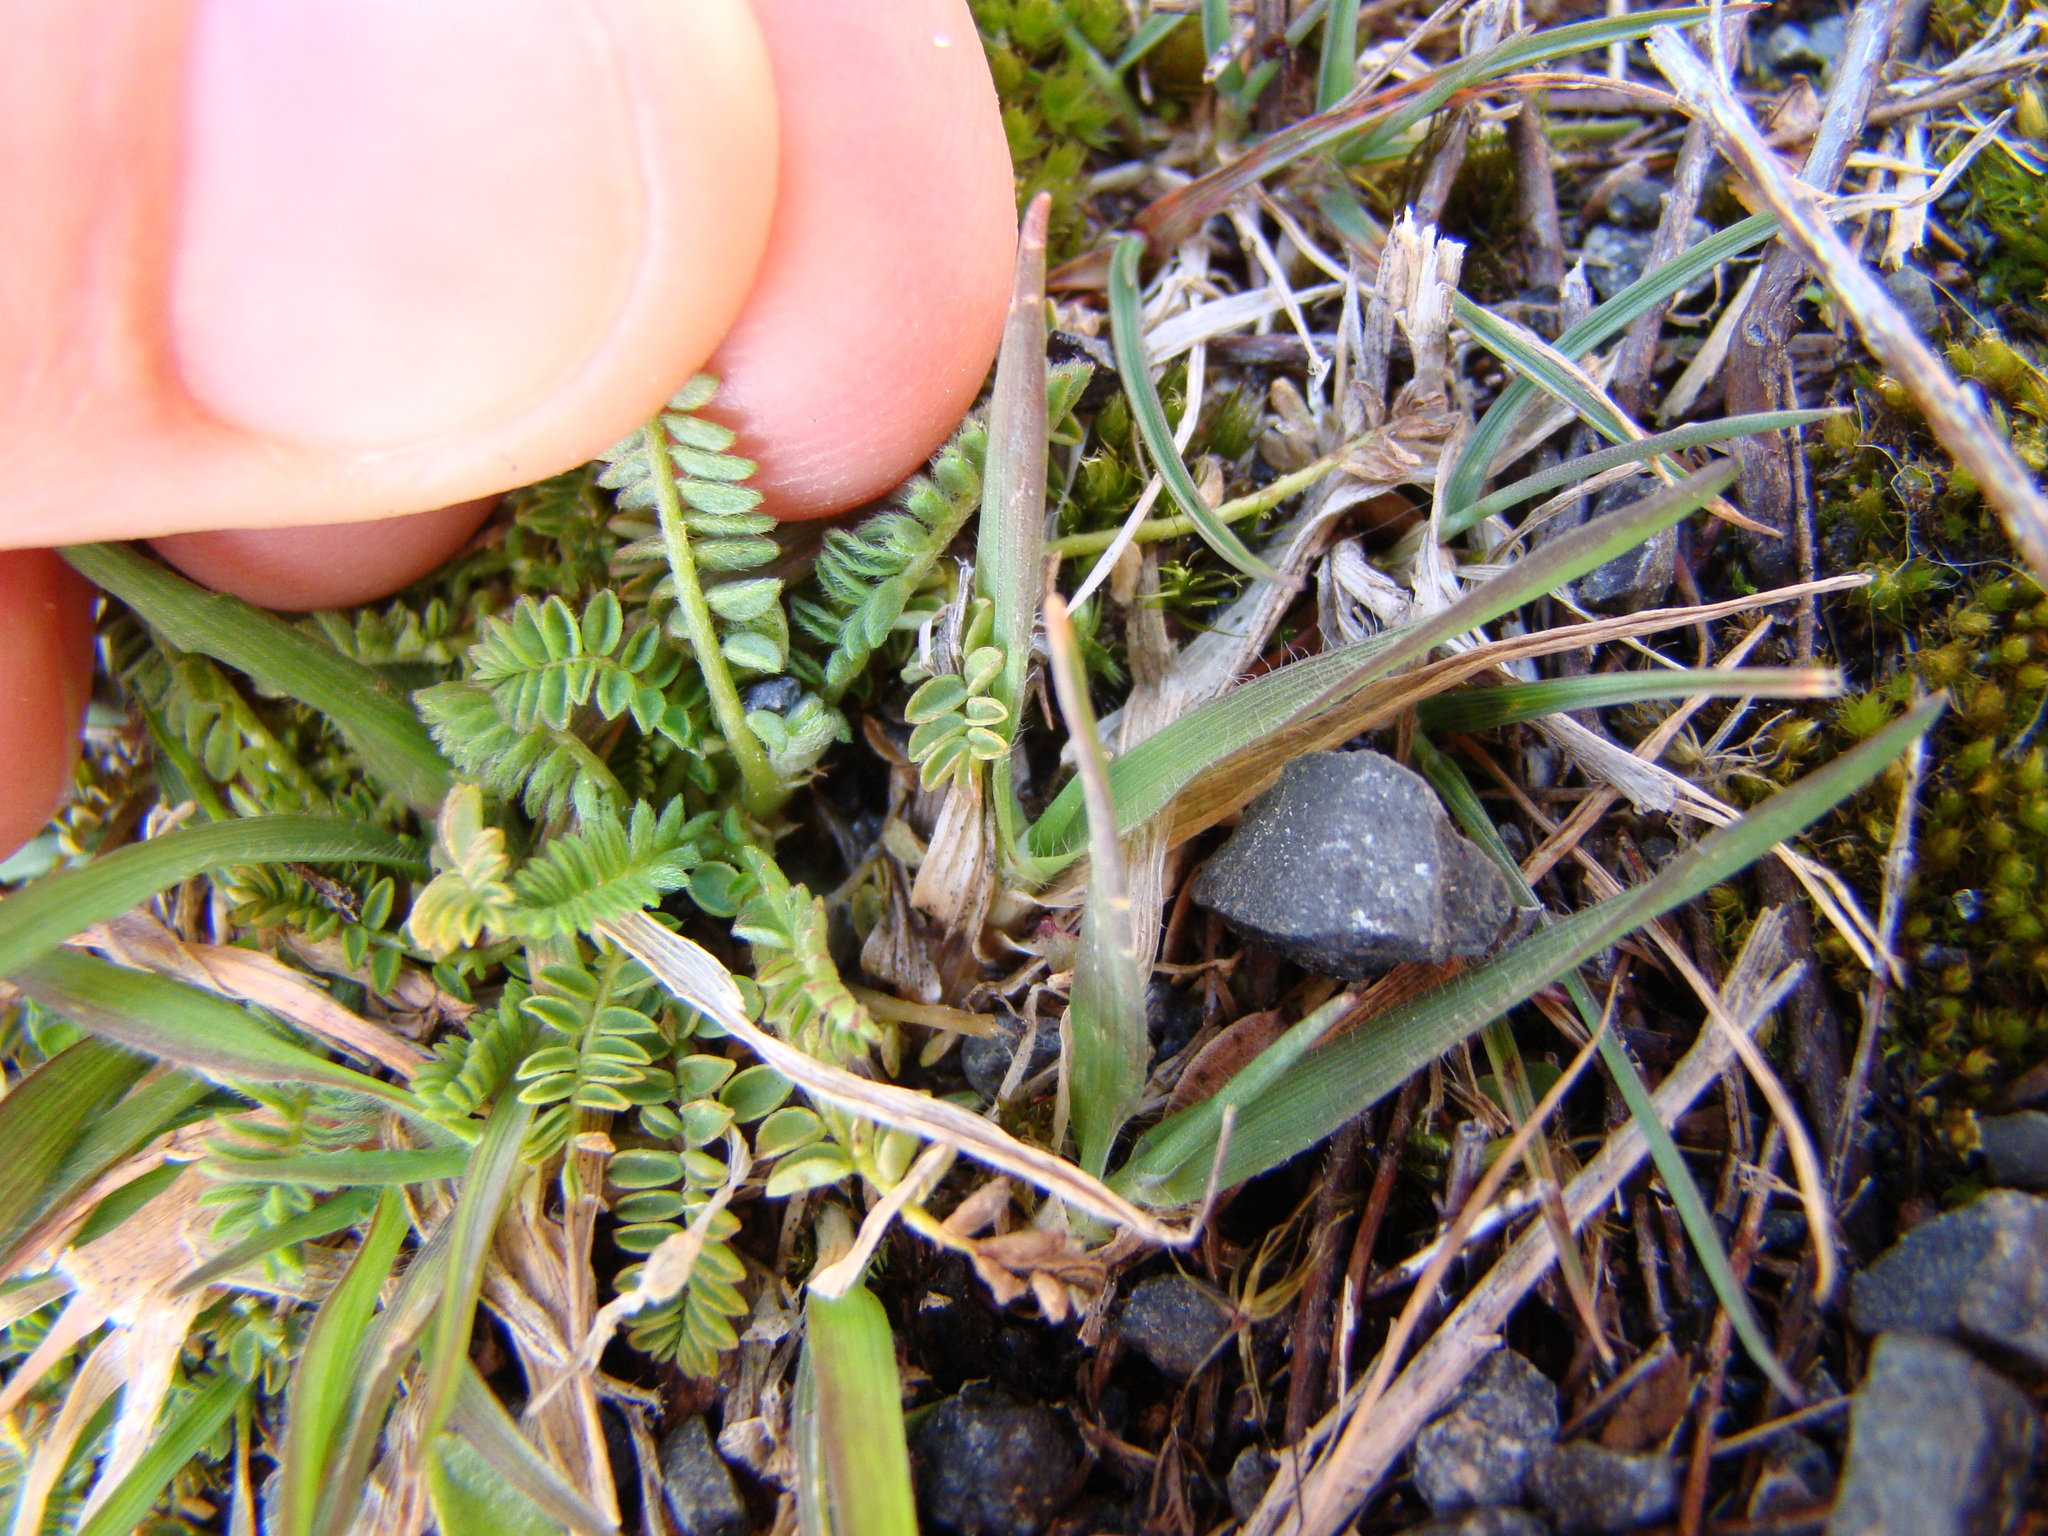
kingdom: Plantae
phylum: Tracheophyta
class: Magnoliopsida
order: Fabales
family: Fabaceae
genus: Ornithopus
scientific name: Ornithopus perpusillus
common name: Bird's-foot
